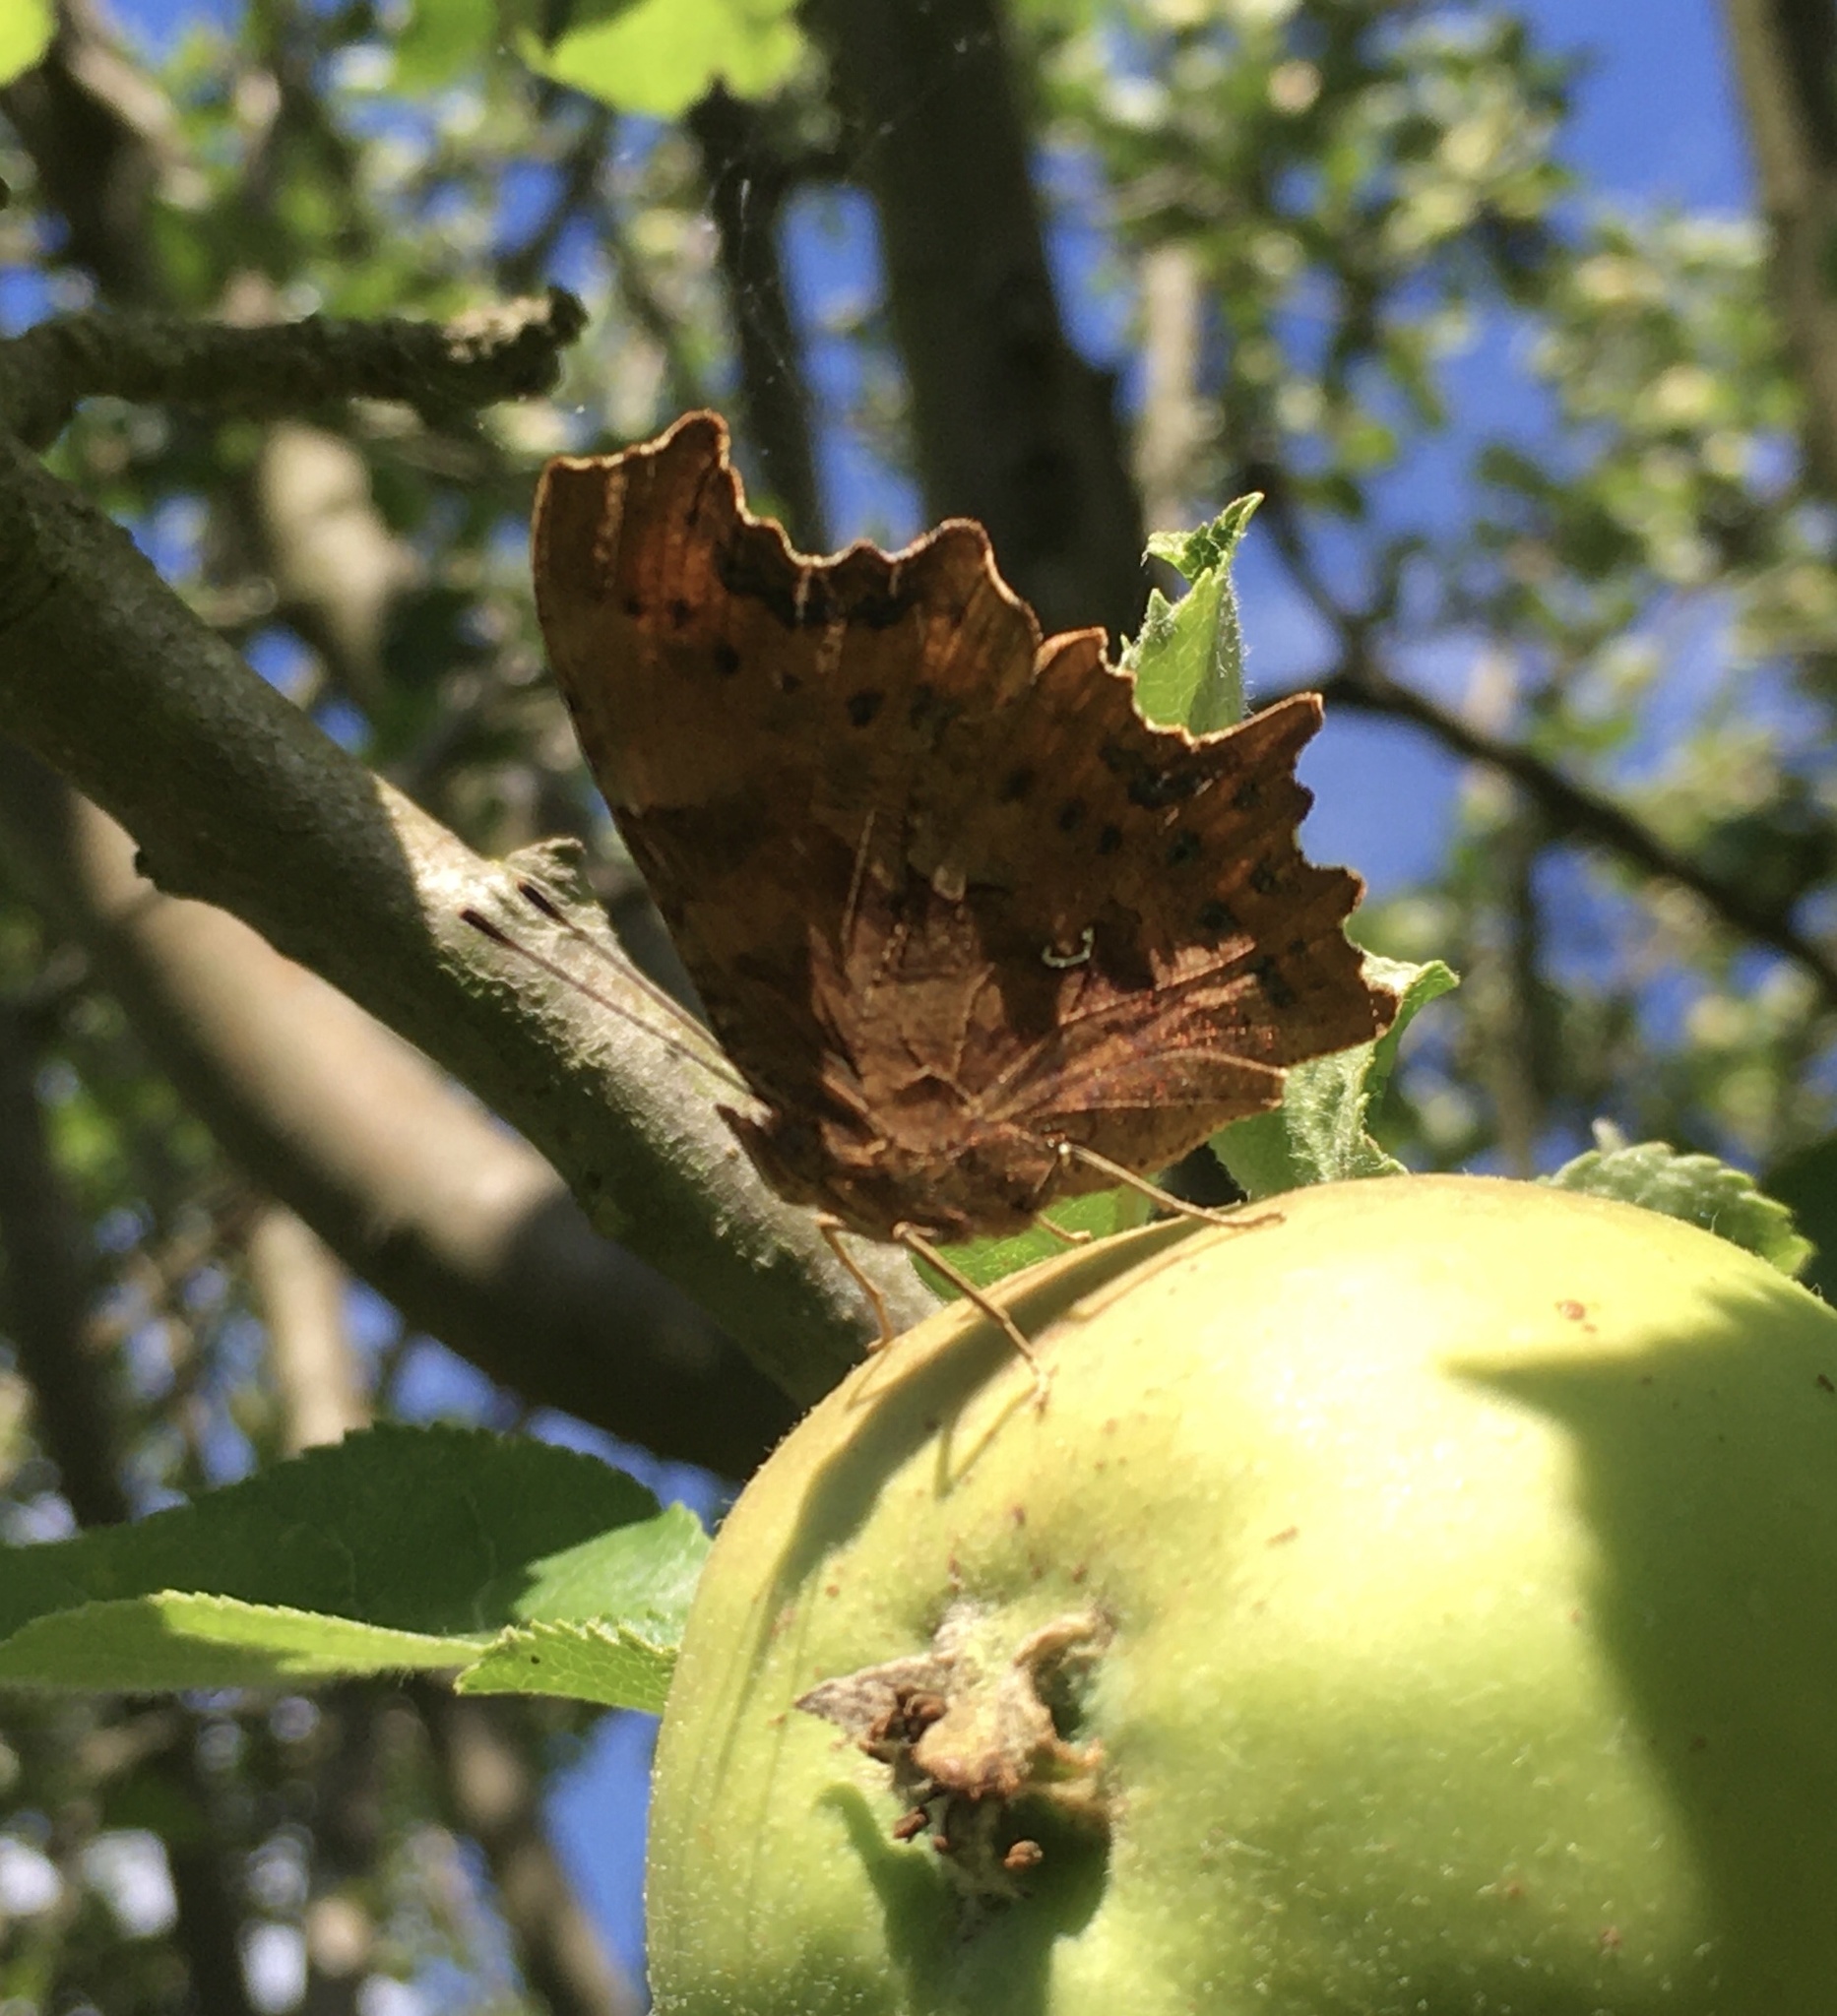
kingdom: Animalia
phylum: Arthropoda
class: Insecta
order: Lepidoptera
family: Nymphalidae
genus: Polygonia
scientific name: Polygonia c-album
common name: Comma
